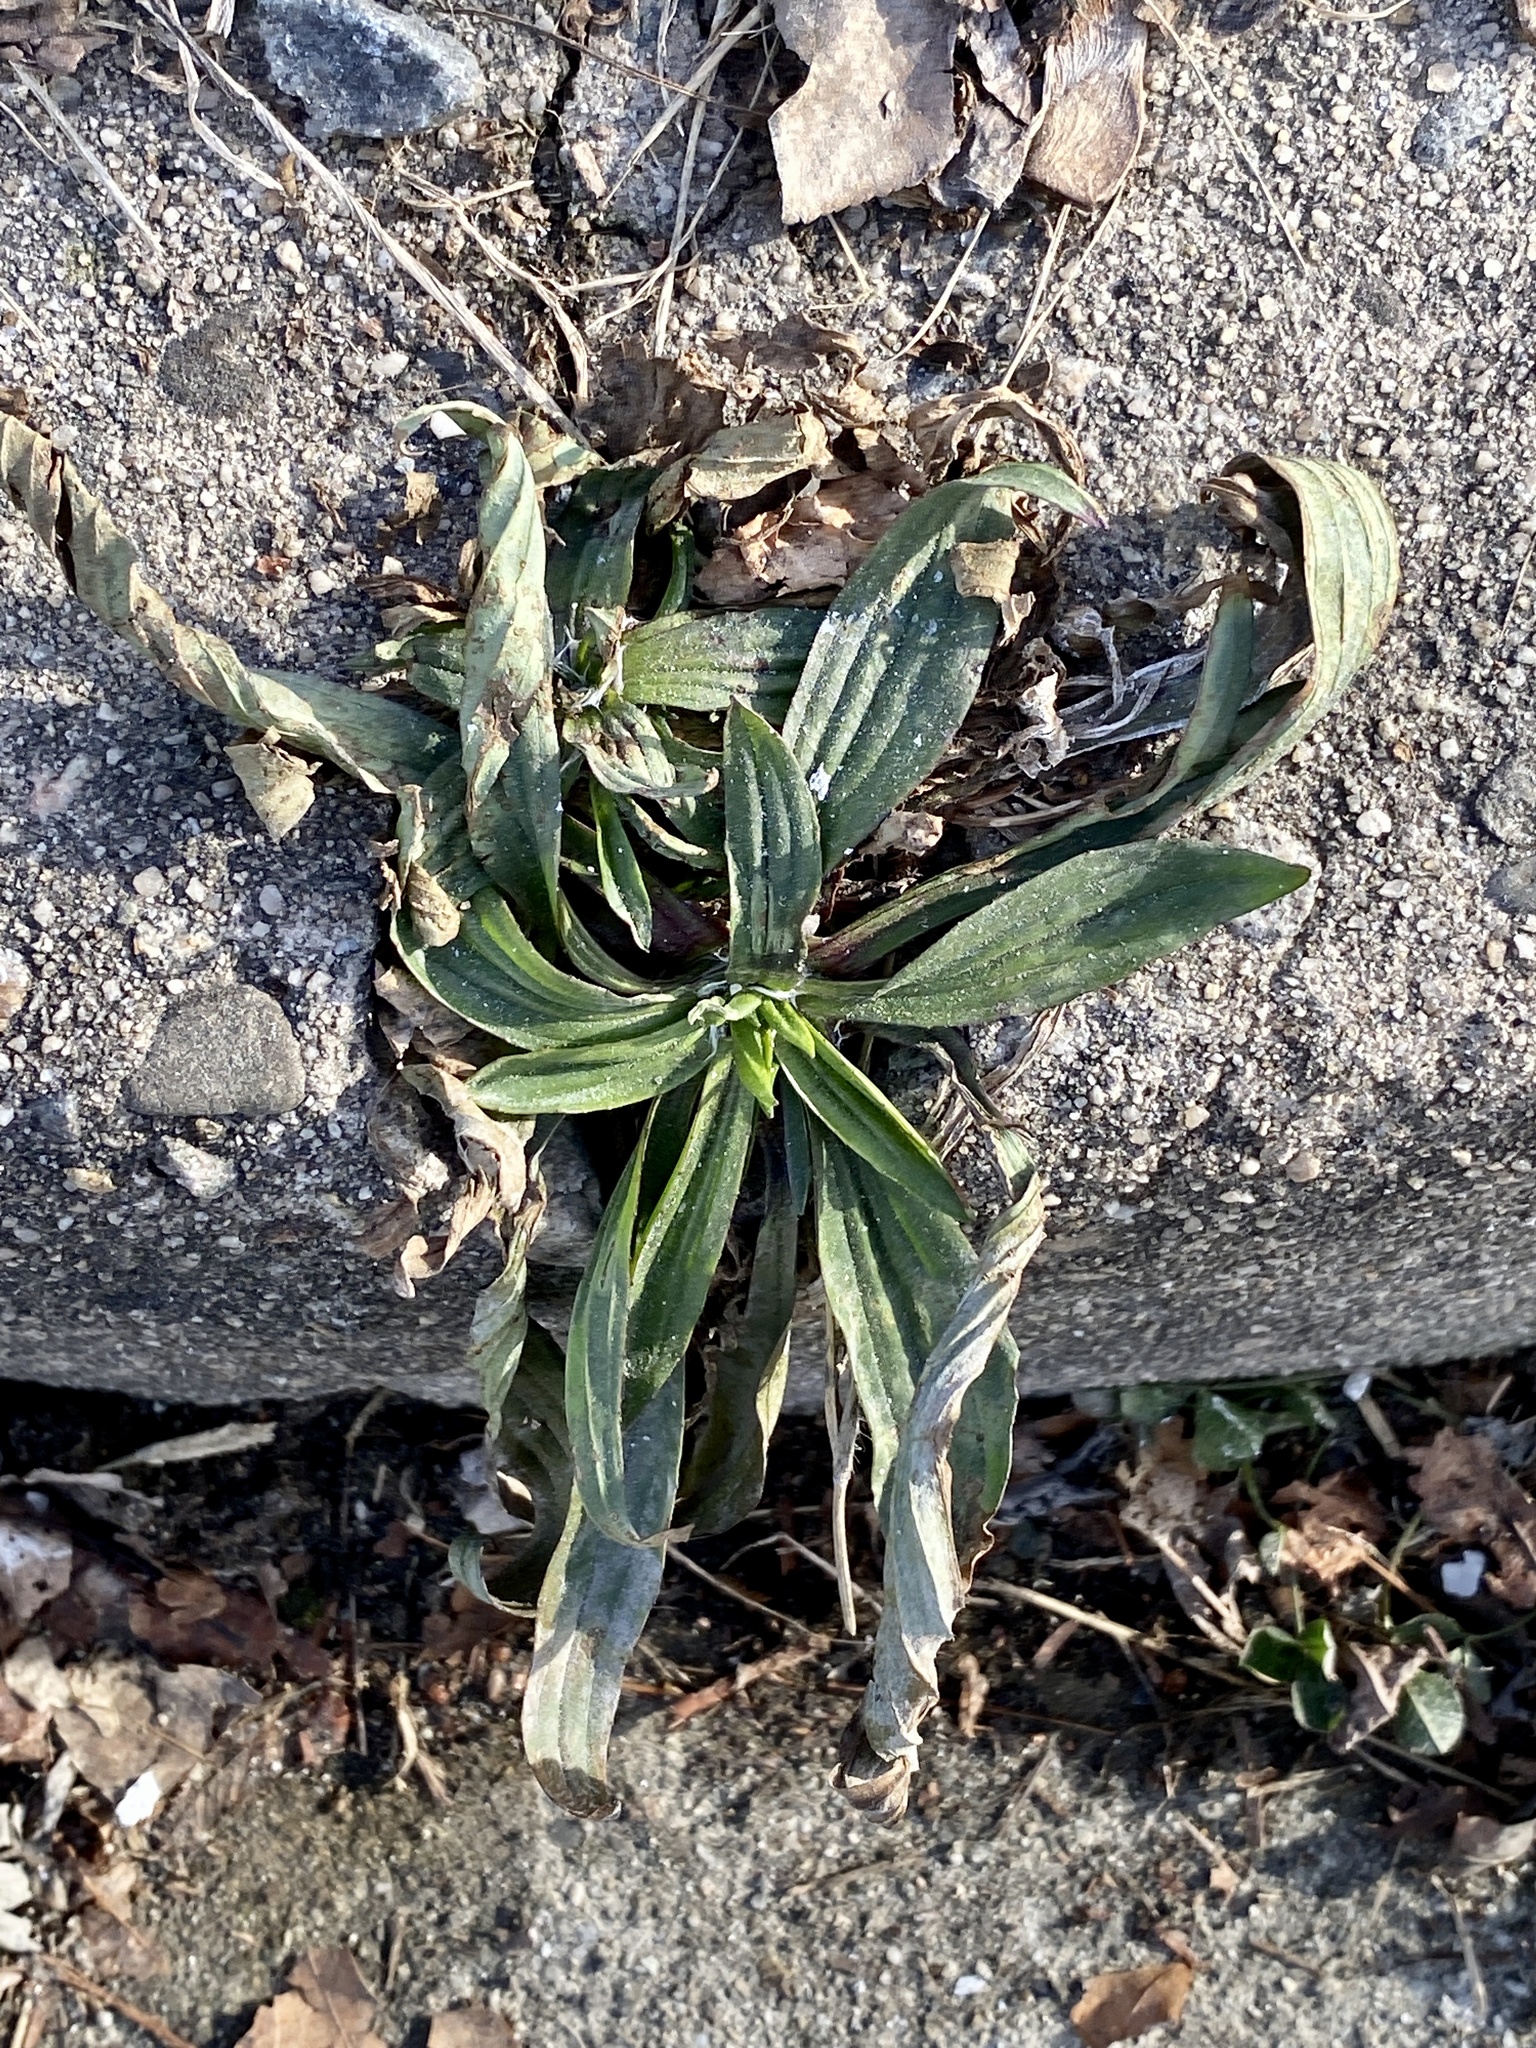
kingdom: Plantae
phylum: Tracheophyta
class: Magnoliopsida
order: Lamiales
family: Plantaginaceae
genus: Plantago
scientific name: Plantago lanceolata
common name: Ribwort plantain
